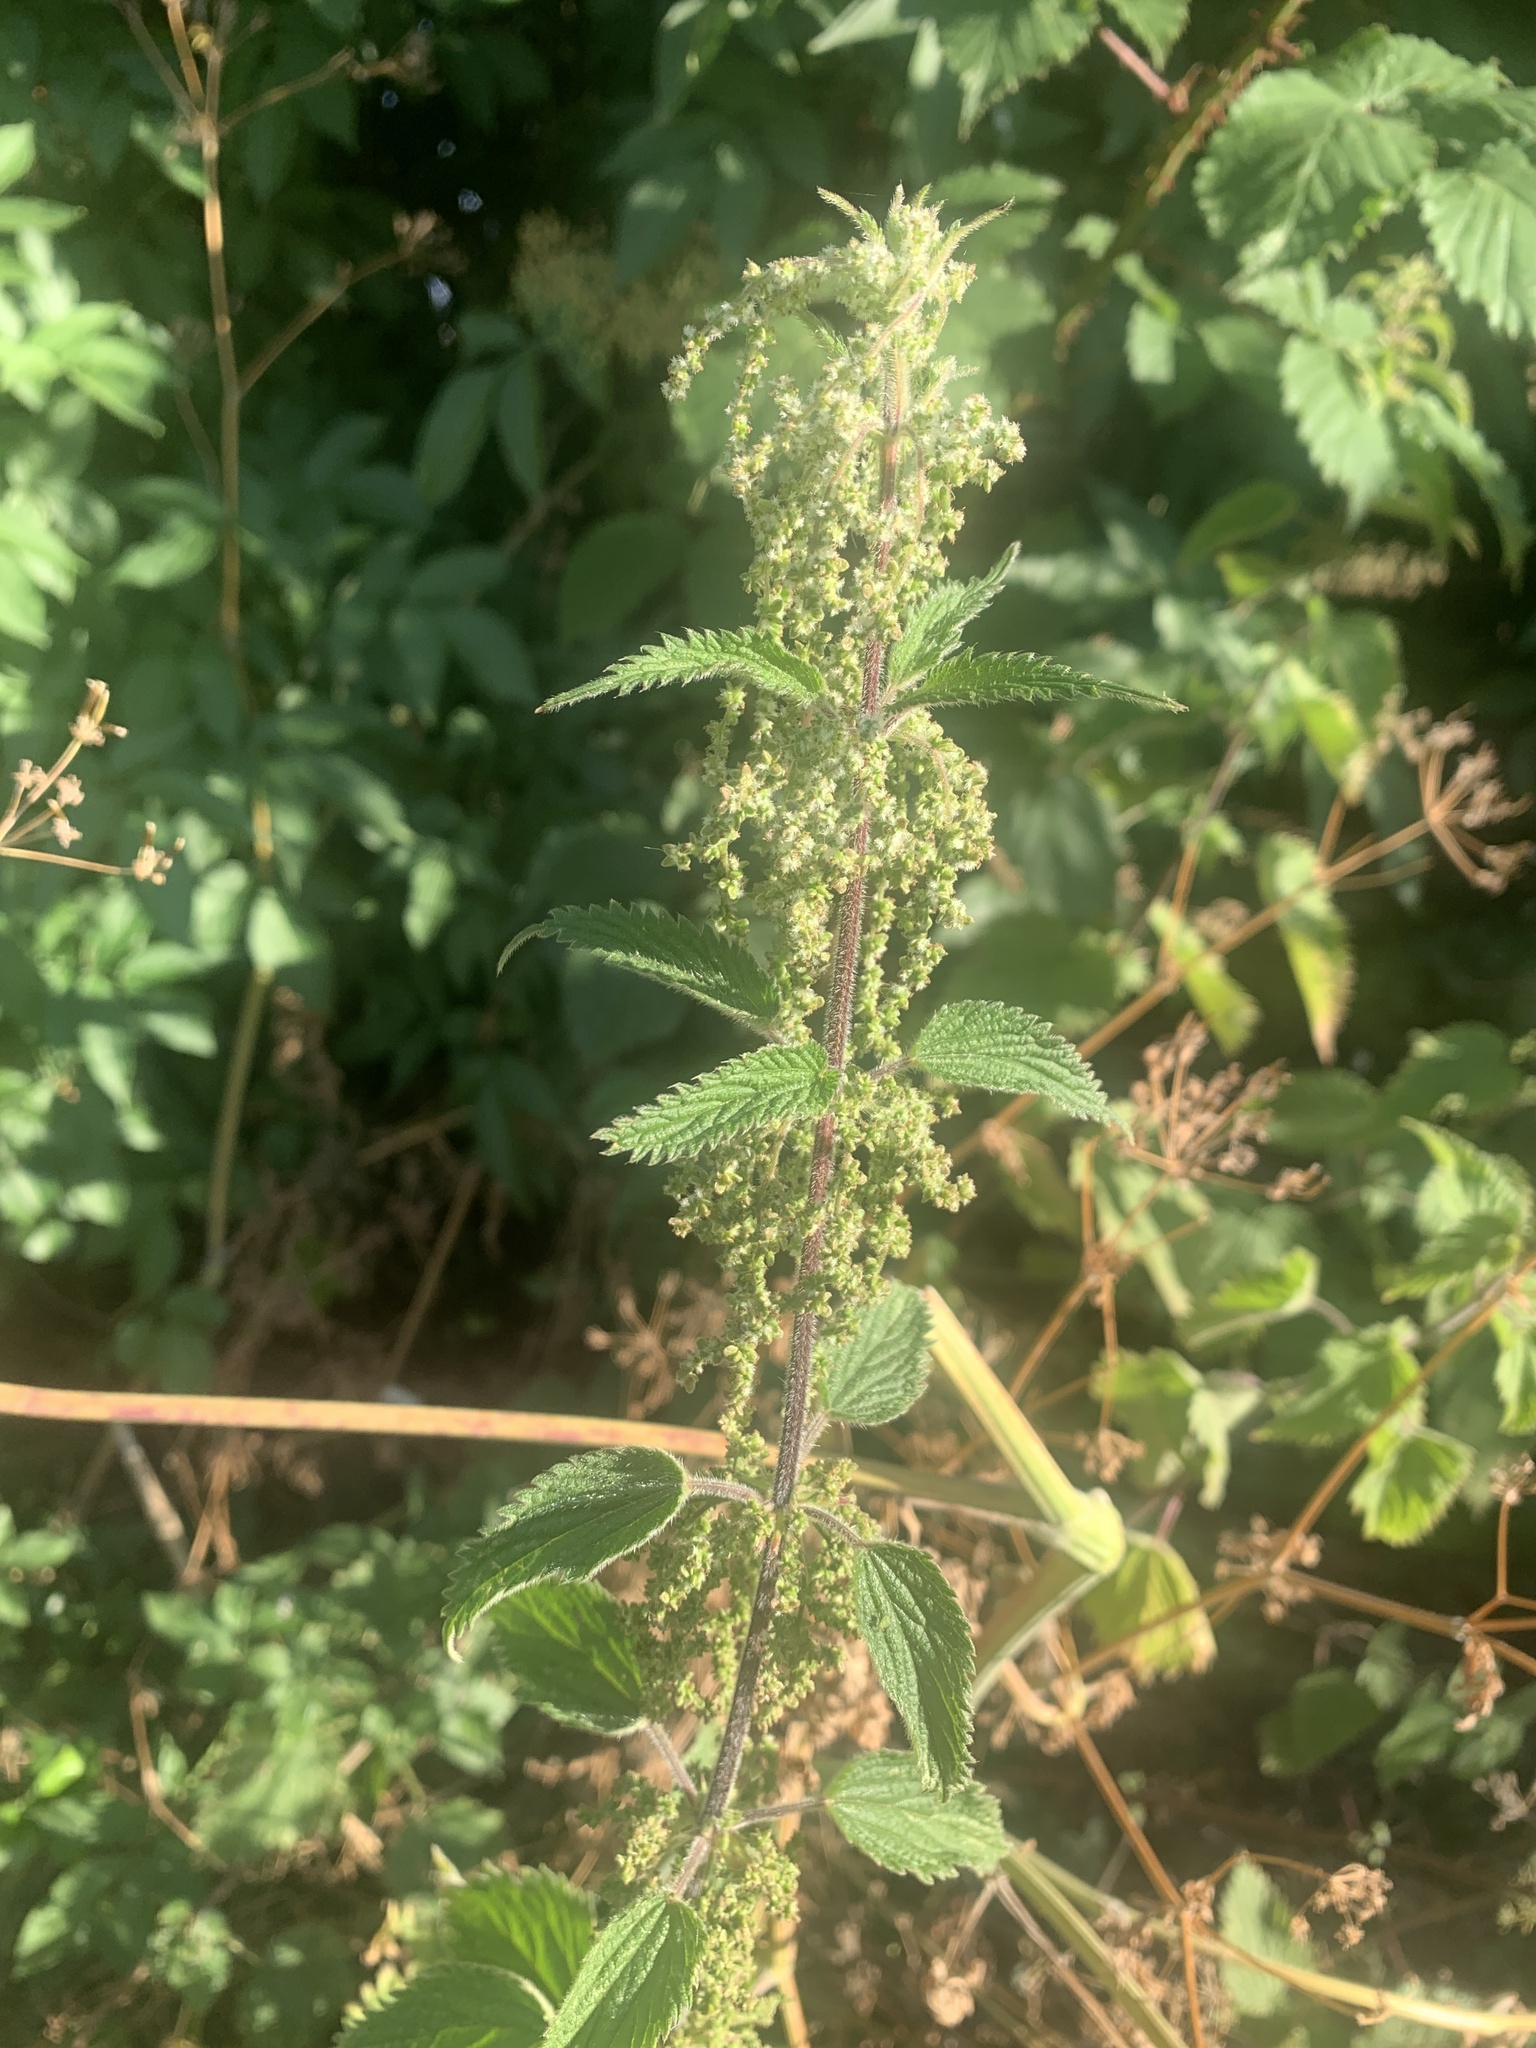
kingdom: Plantae
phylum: Tracheophyta
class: Magnoliopsida
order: Rosales
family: Urticaceae
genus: Urtica
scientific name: Urtica dioica
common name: Common nettle
